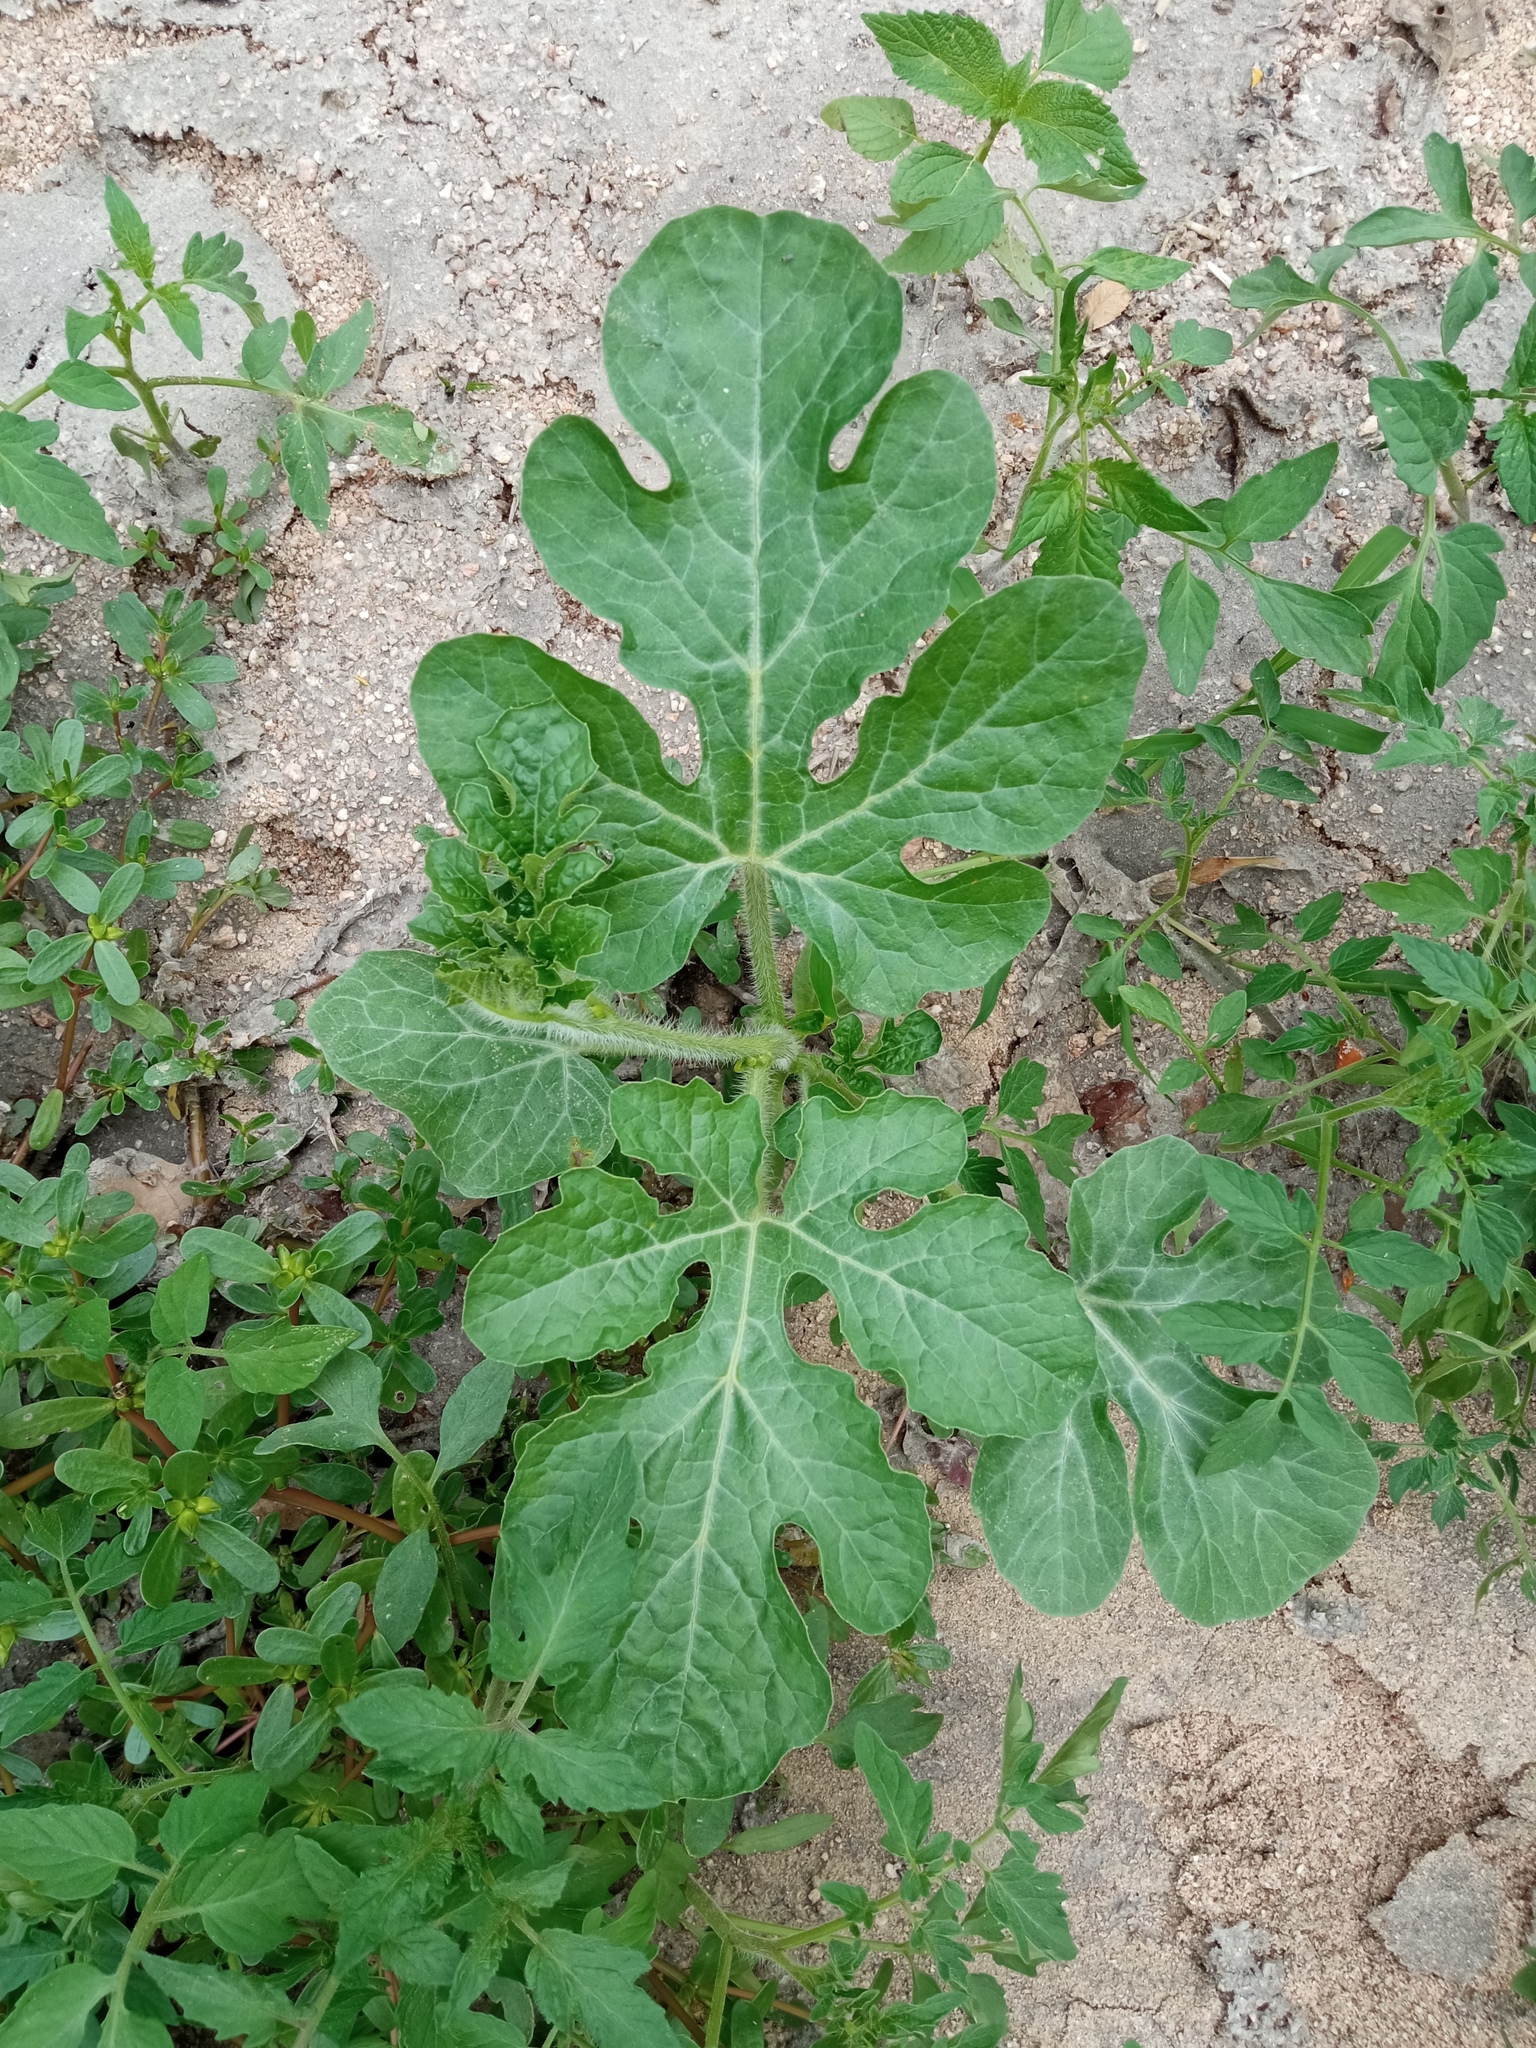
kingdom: Plantae
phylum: Tracheophyta
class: Magnoliopsida
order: Cucurbitales
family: Cucurbitaceae
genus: Citrullus
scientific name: Citrullus lanatus
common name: Watermelon
